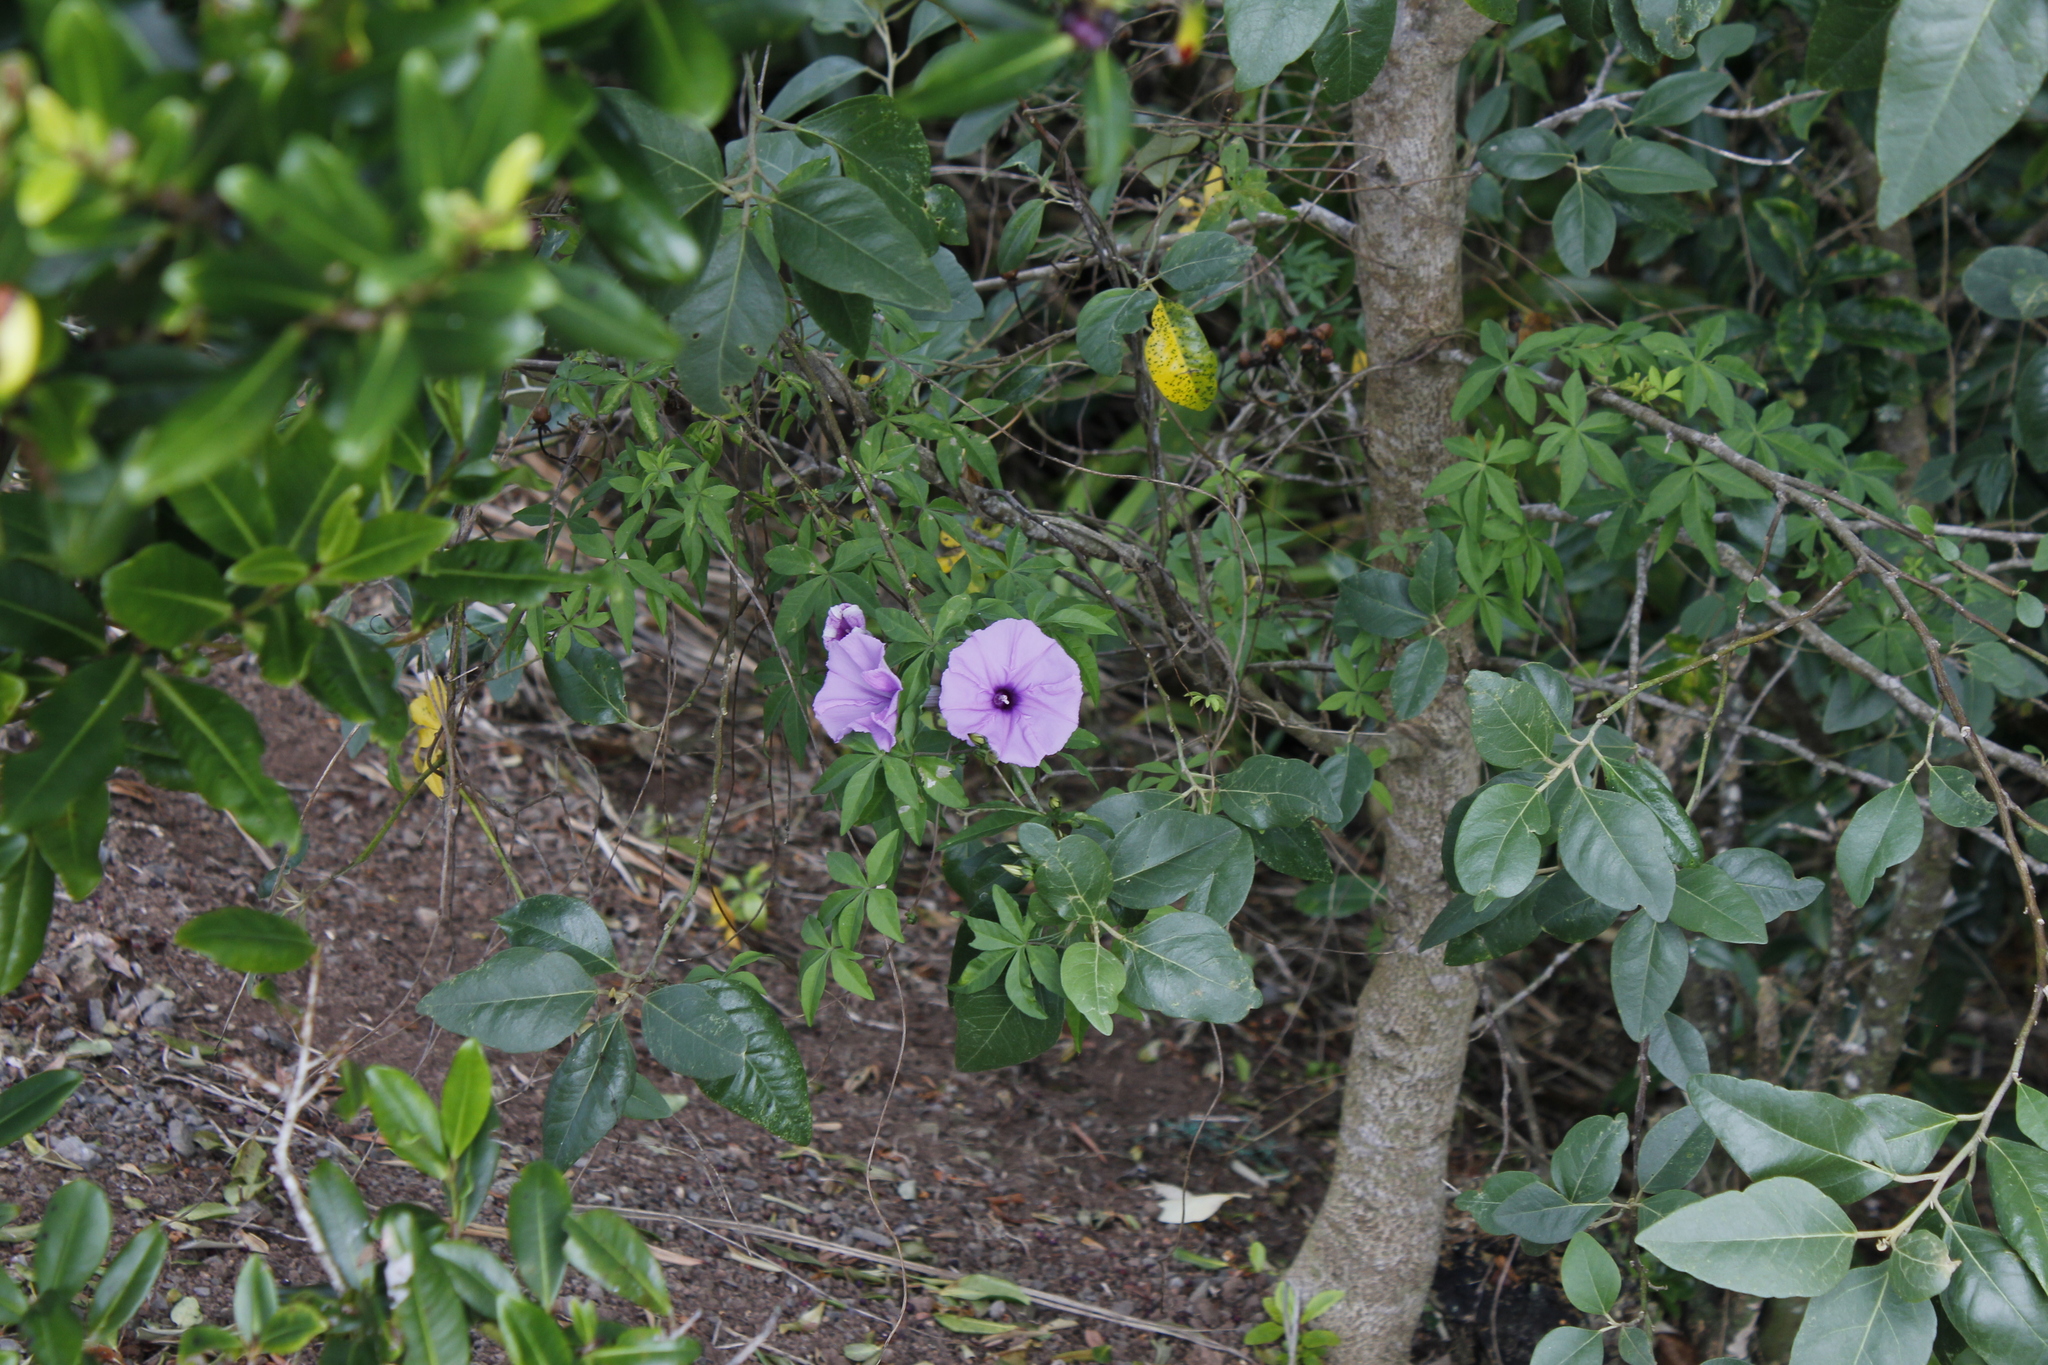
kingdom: Plantae
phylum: Tracheophyta
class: Magnoliopsida
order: Solanales
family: Convolvulaceae
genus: Ipomoea
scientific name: Ipomoea cairica
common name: Mile a minute vine
